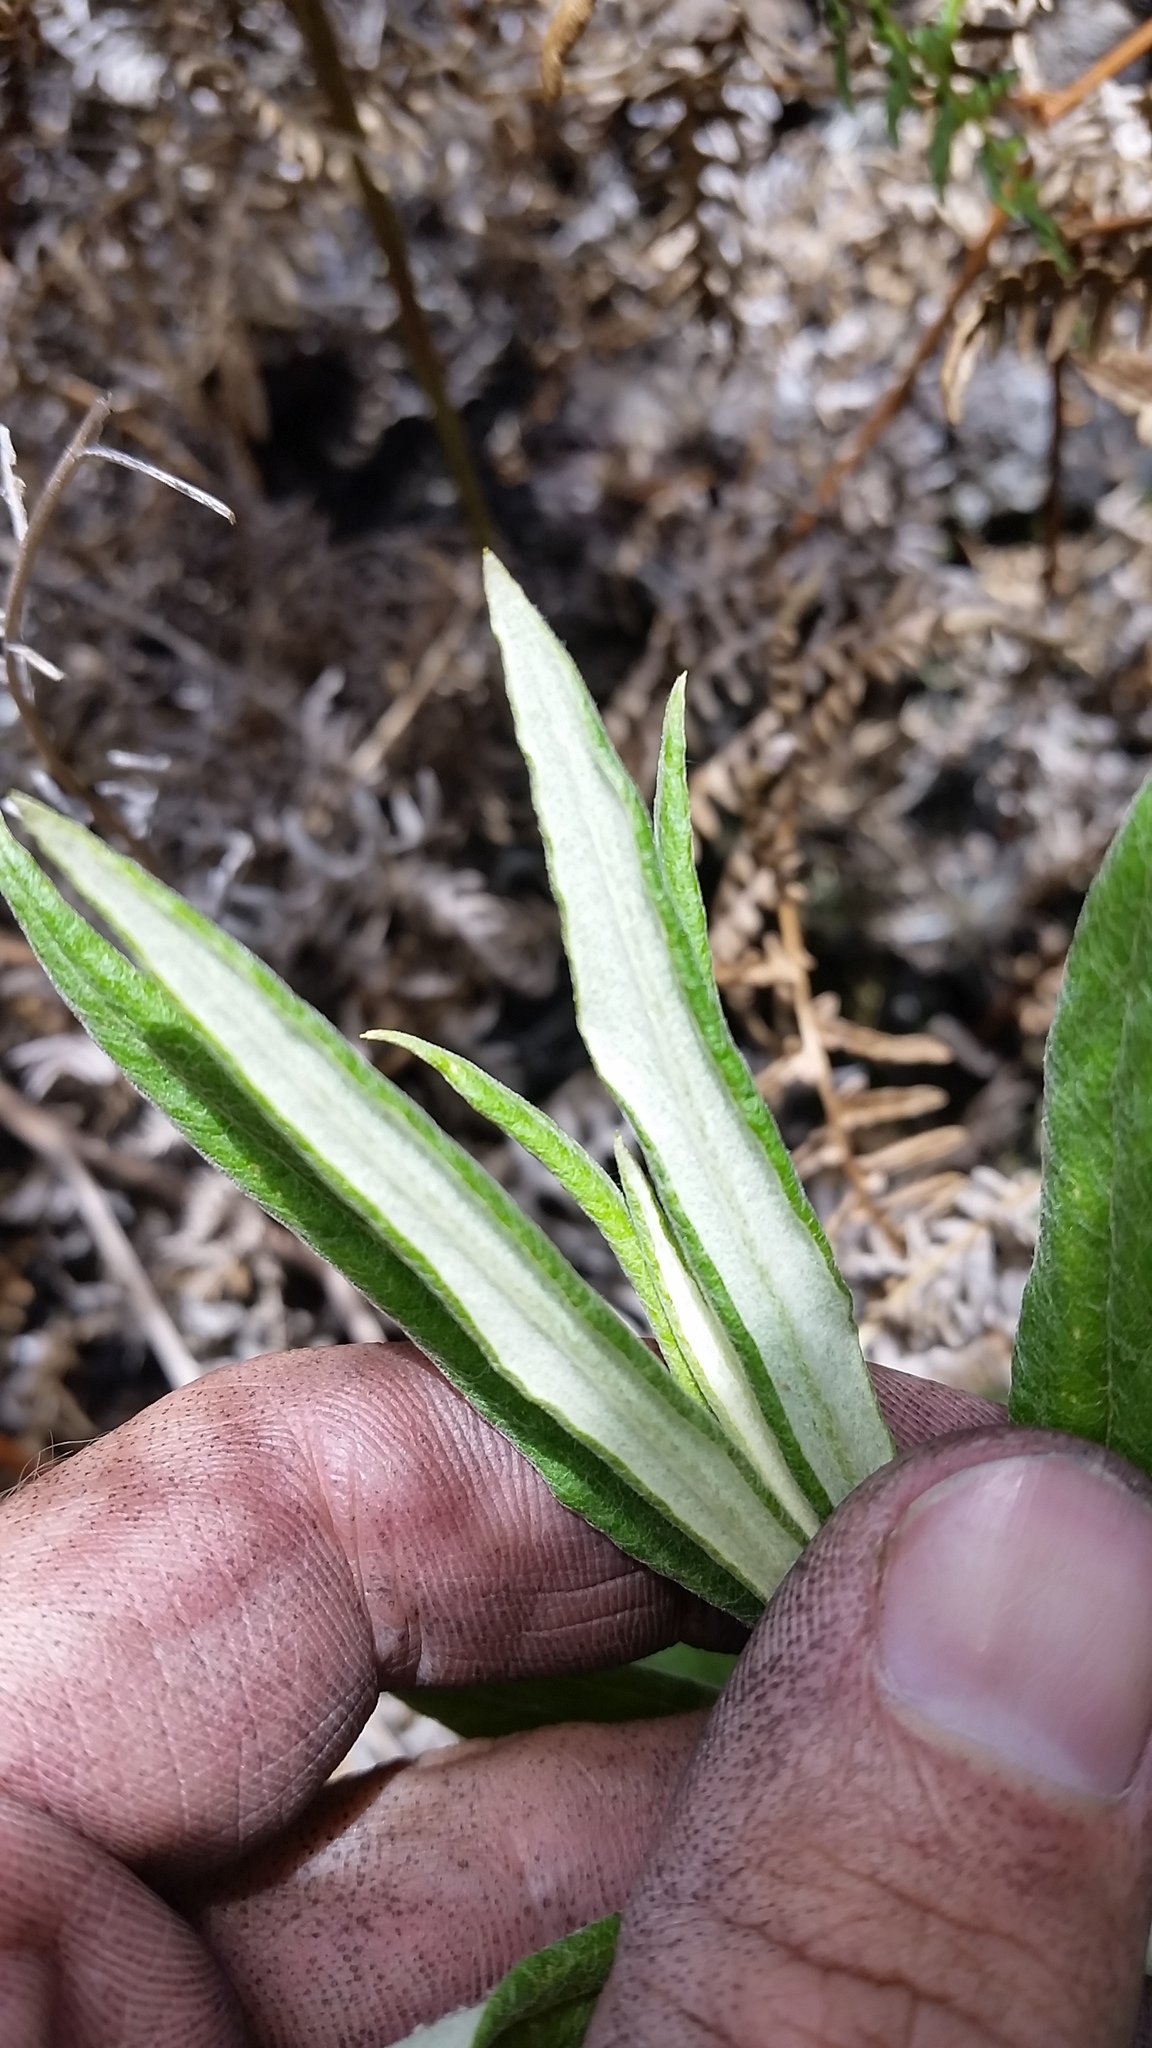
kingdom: Plantae
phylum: Tracheophyta
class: Magnoliopsida
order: Asterales
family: Asteraceae
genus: Pseudognaphalium
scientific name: Pseudognaphalium attenuatum
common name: Tapered cudweed
